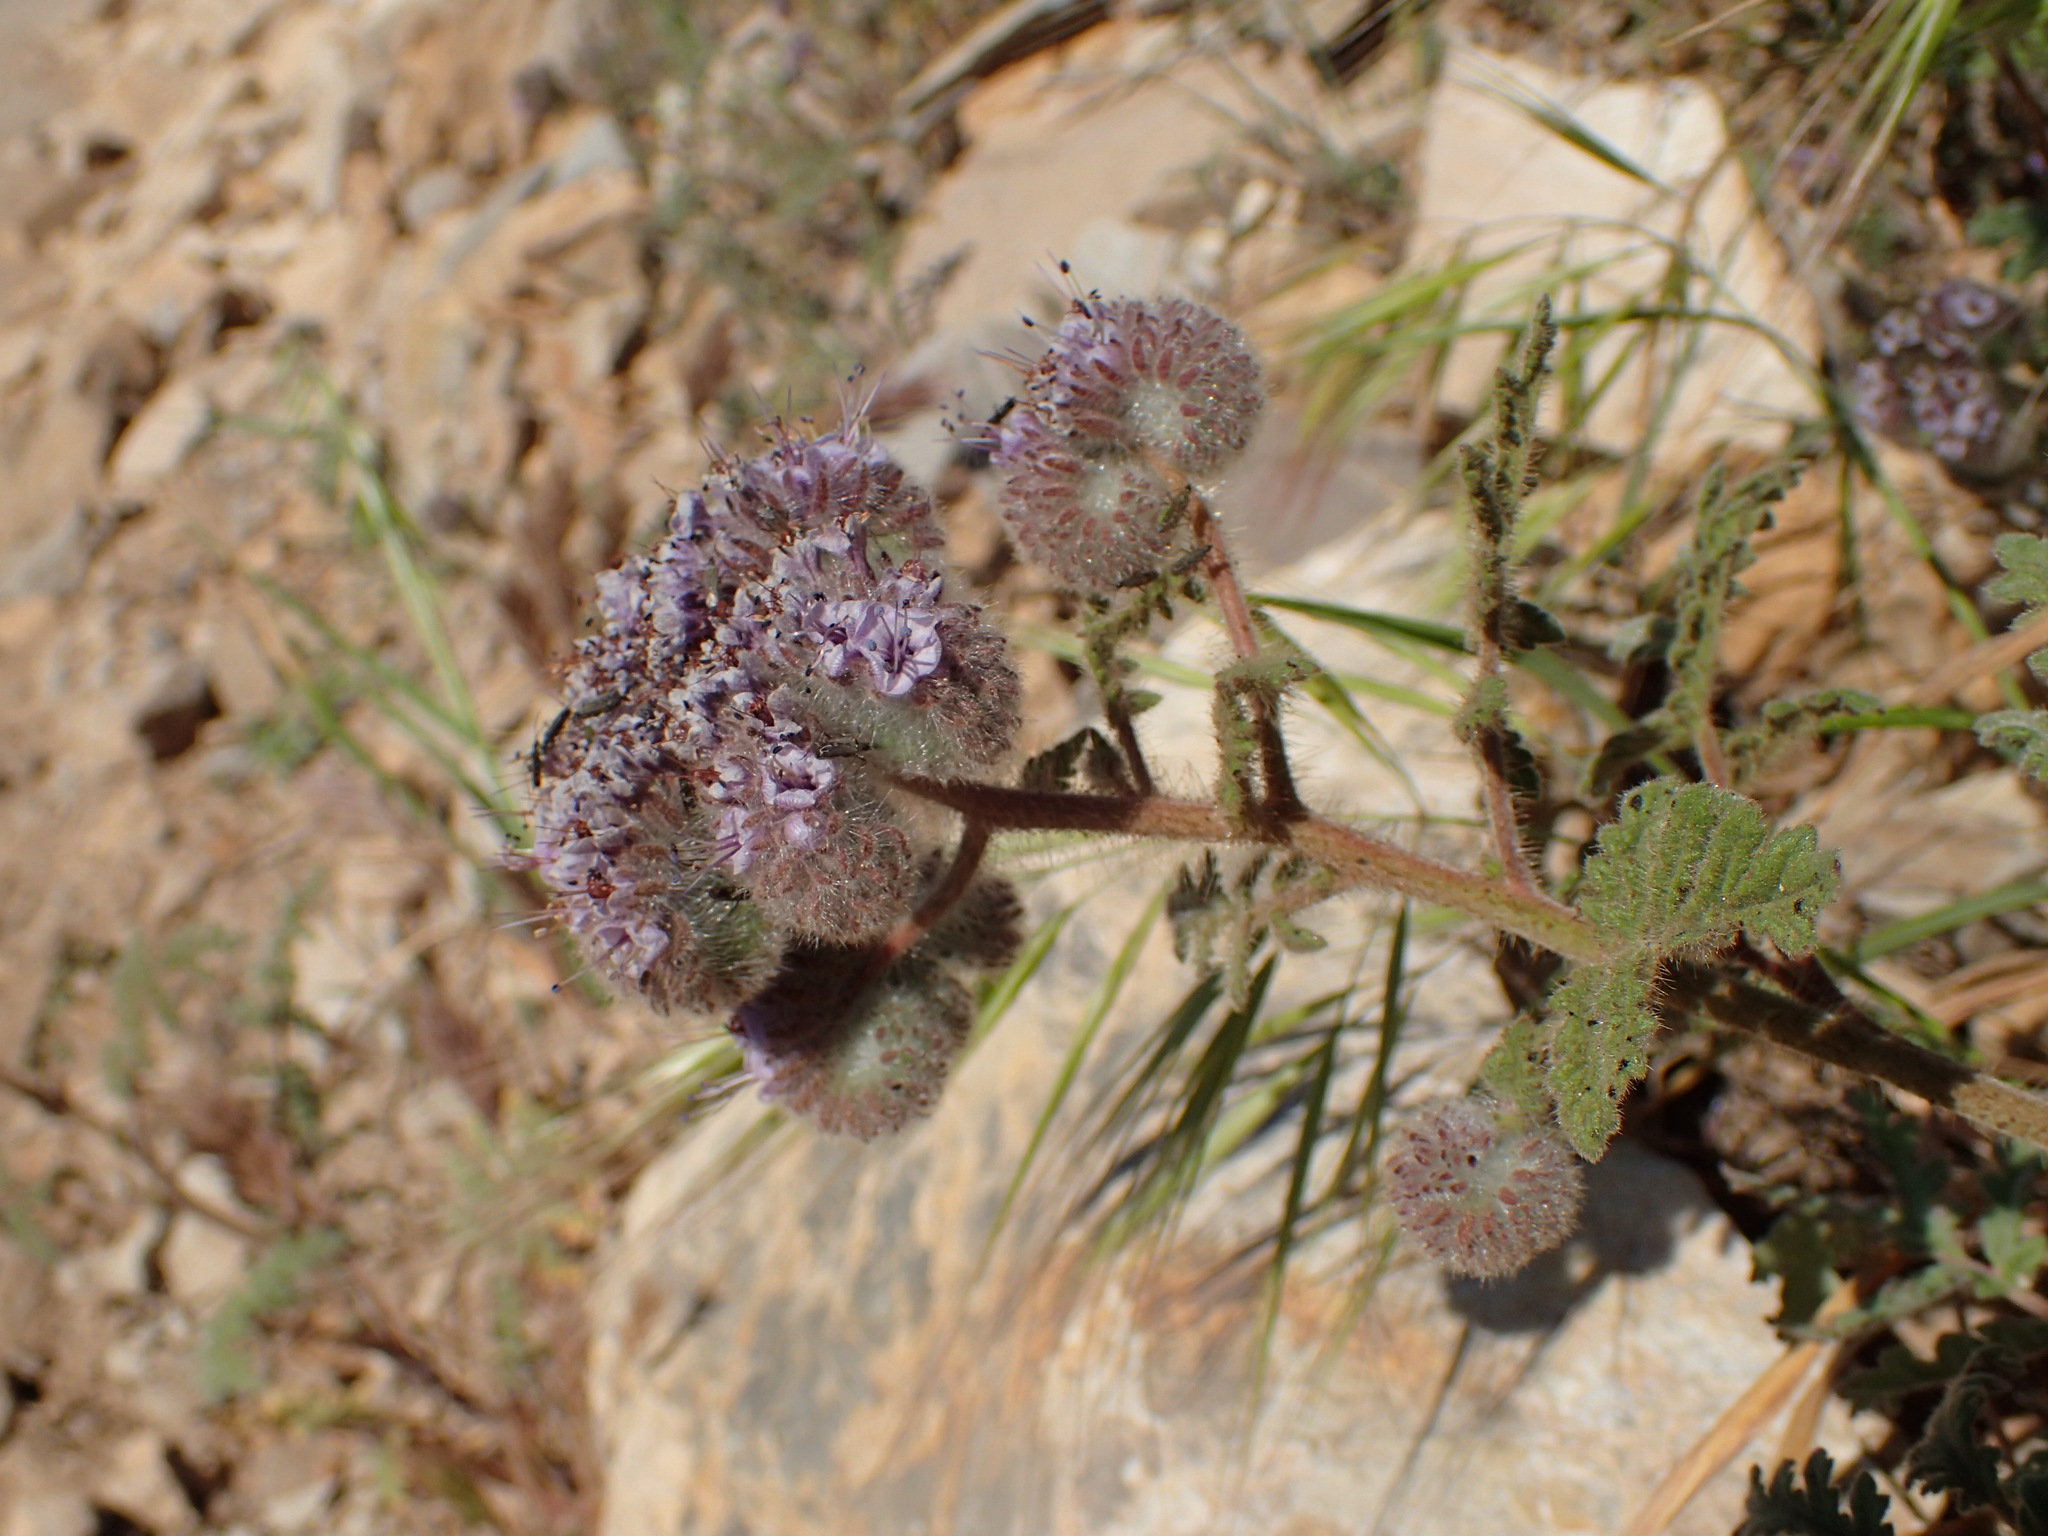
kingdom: Plantae
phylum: Tracheophyta
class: Magnoliopsida
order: Boraginales
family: Hydrophyllaceae
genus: Phacelia
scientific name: Phacelia hubbyi
